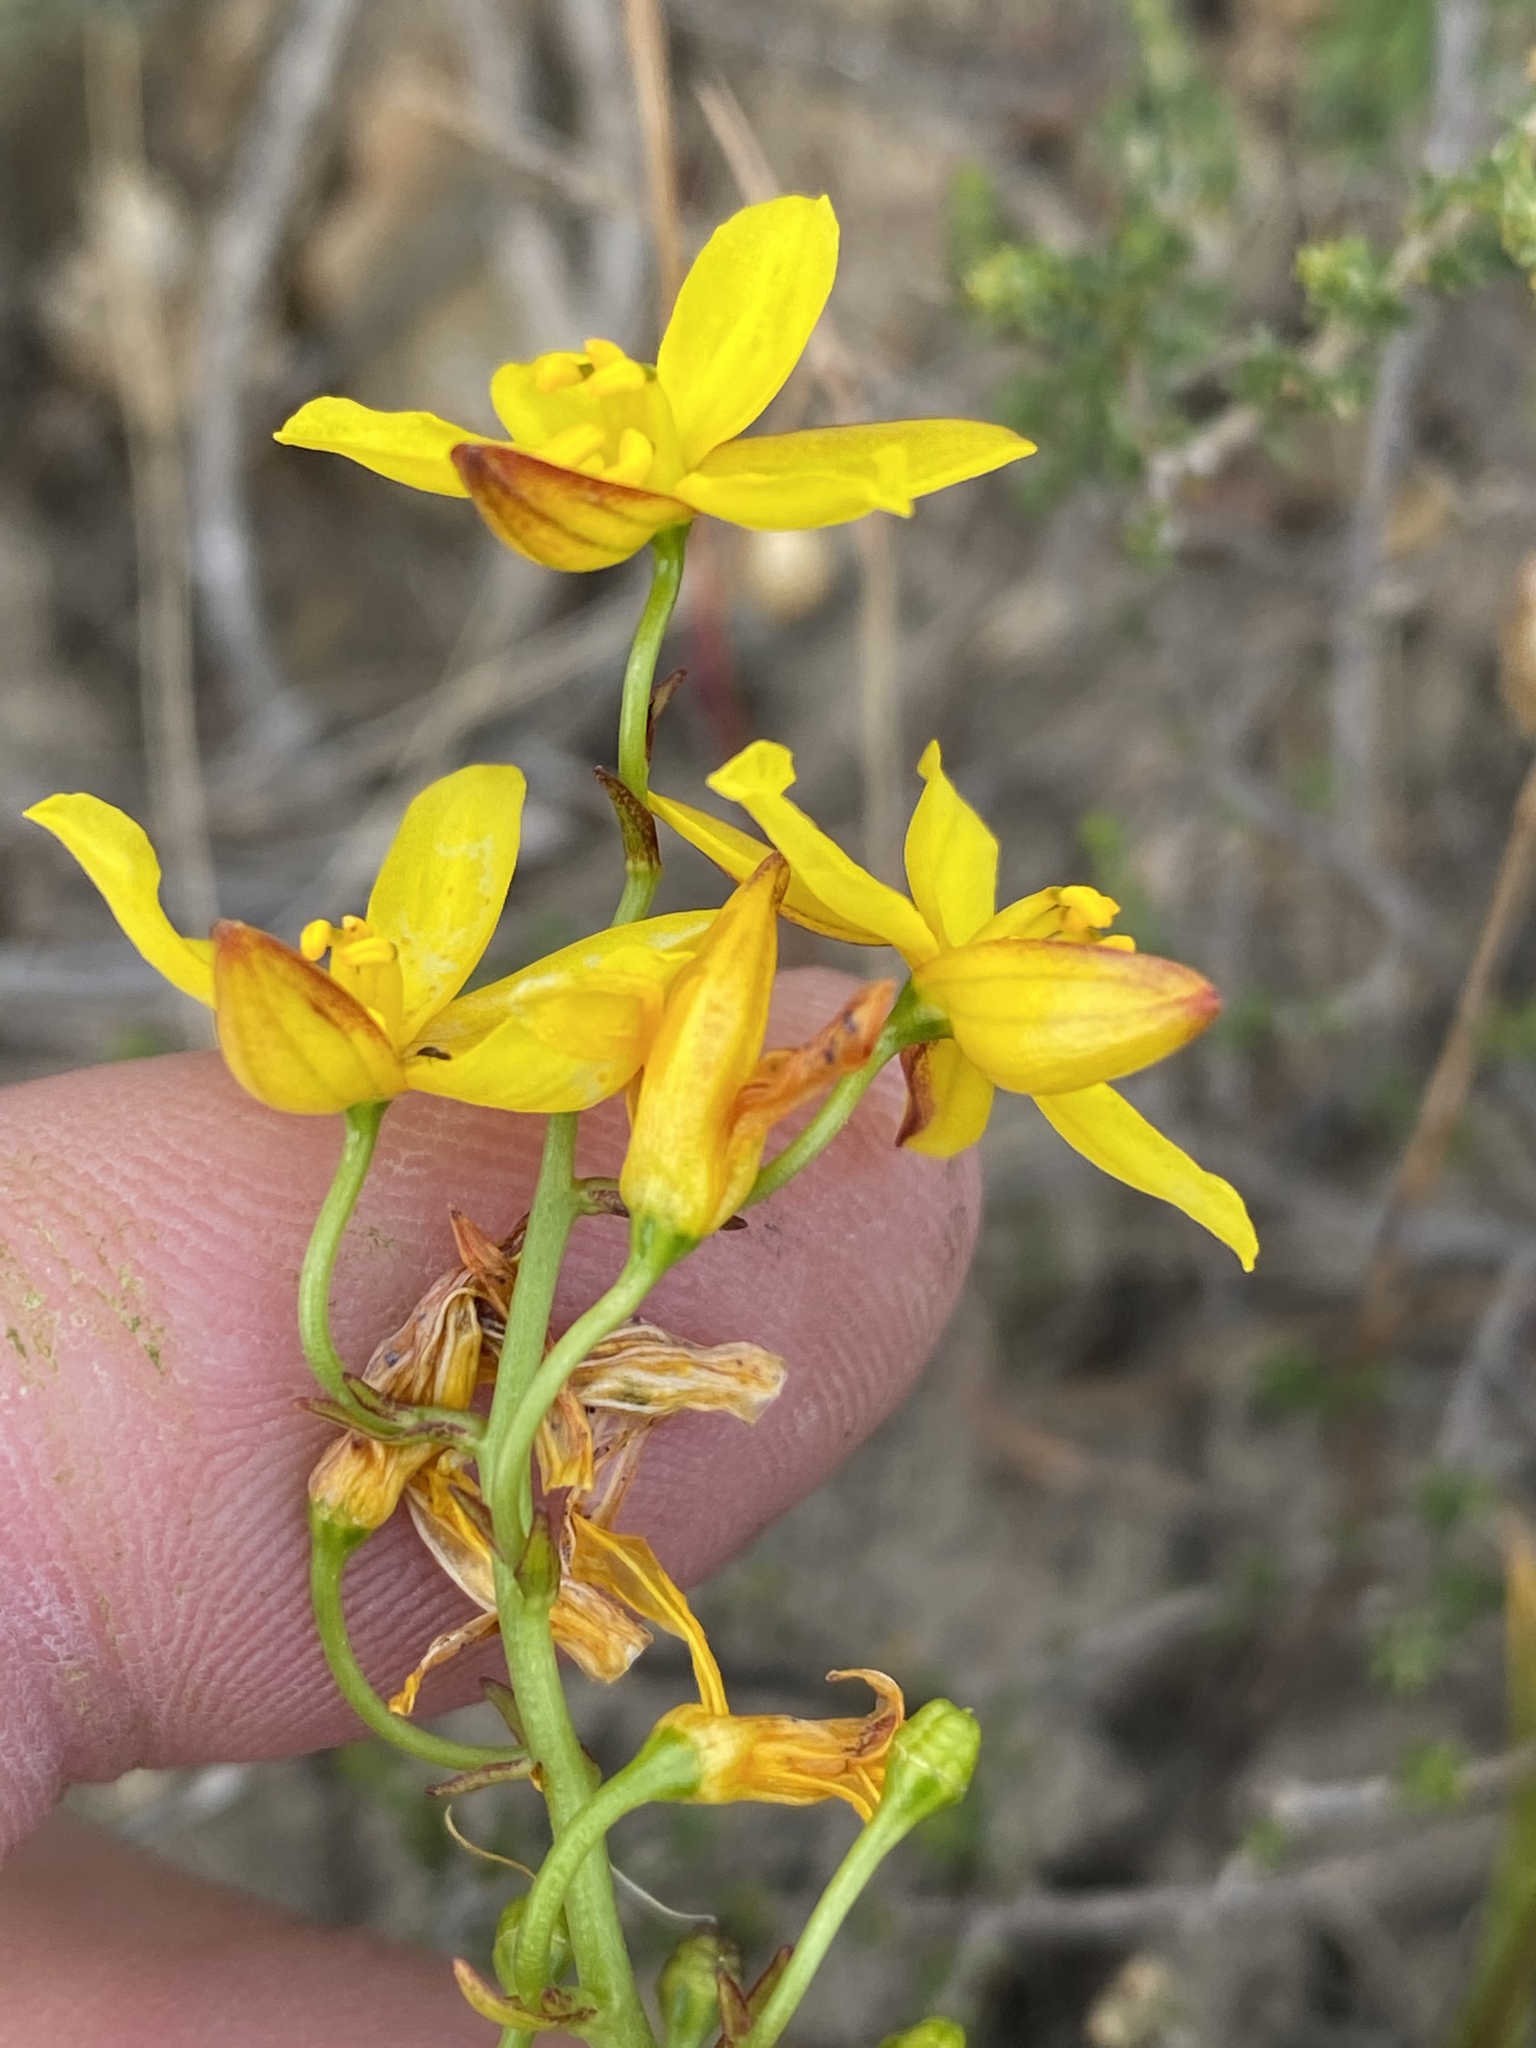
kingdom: Plantae
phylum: Tracheophyta
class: Liliopsida
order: Asparagales
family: Tecophilaeaceae
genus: Cyanella
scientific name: Cyanella lutea
